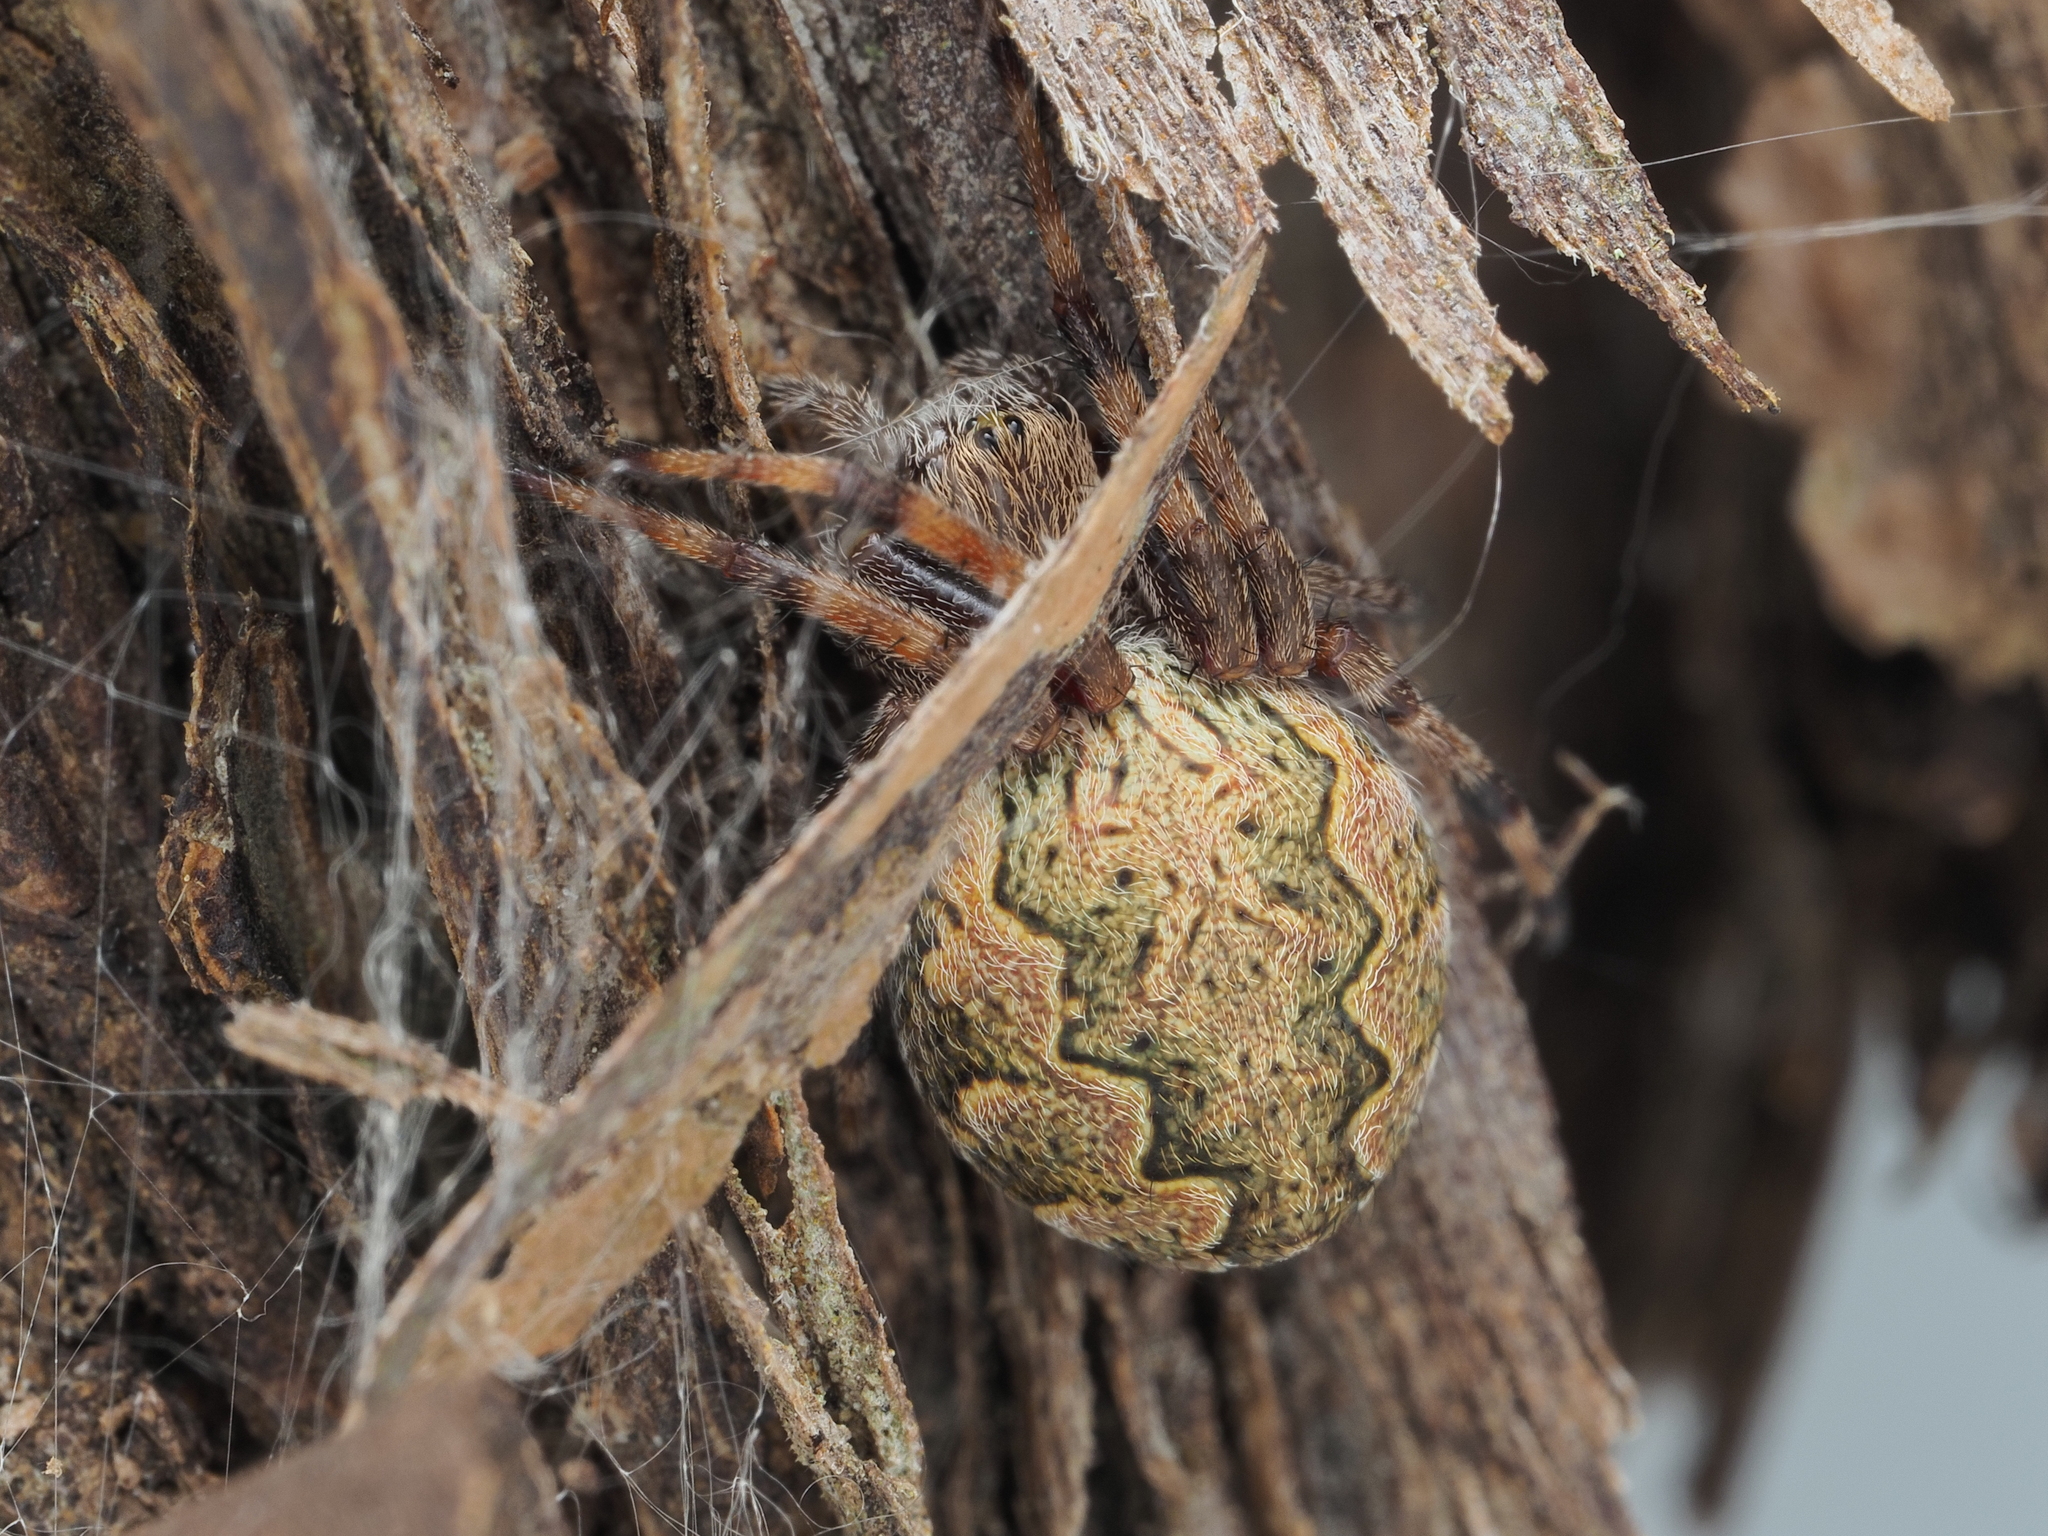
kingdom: Animalia
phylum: Arthropoda
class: Arachnida
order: Araneae
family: Araneidae
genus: Salsa
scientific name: Salsa fuliginata
